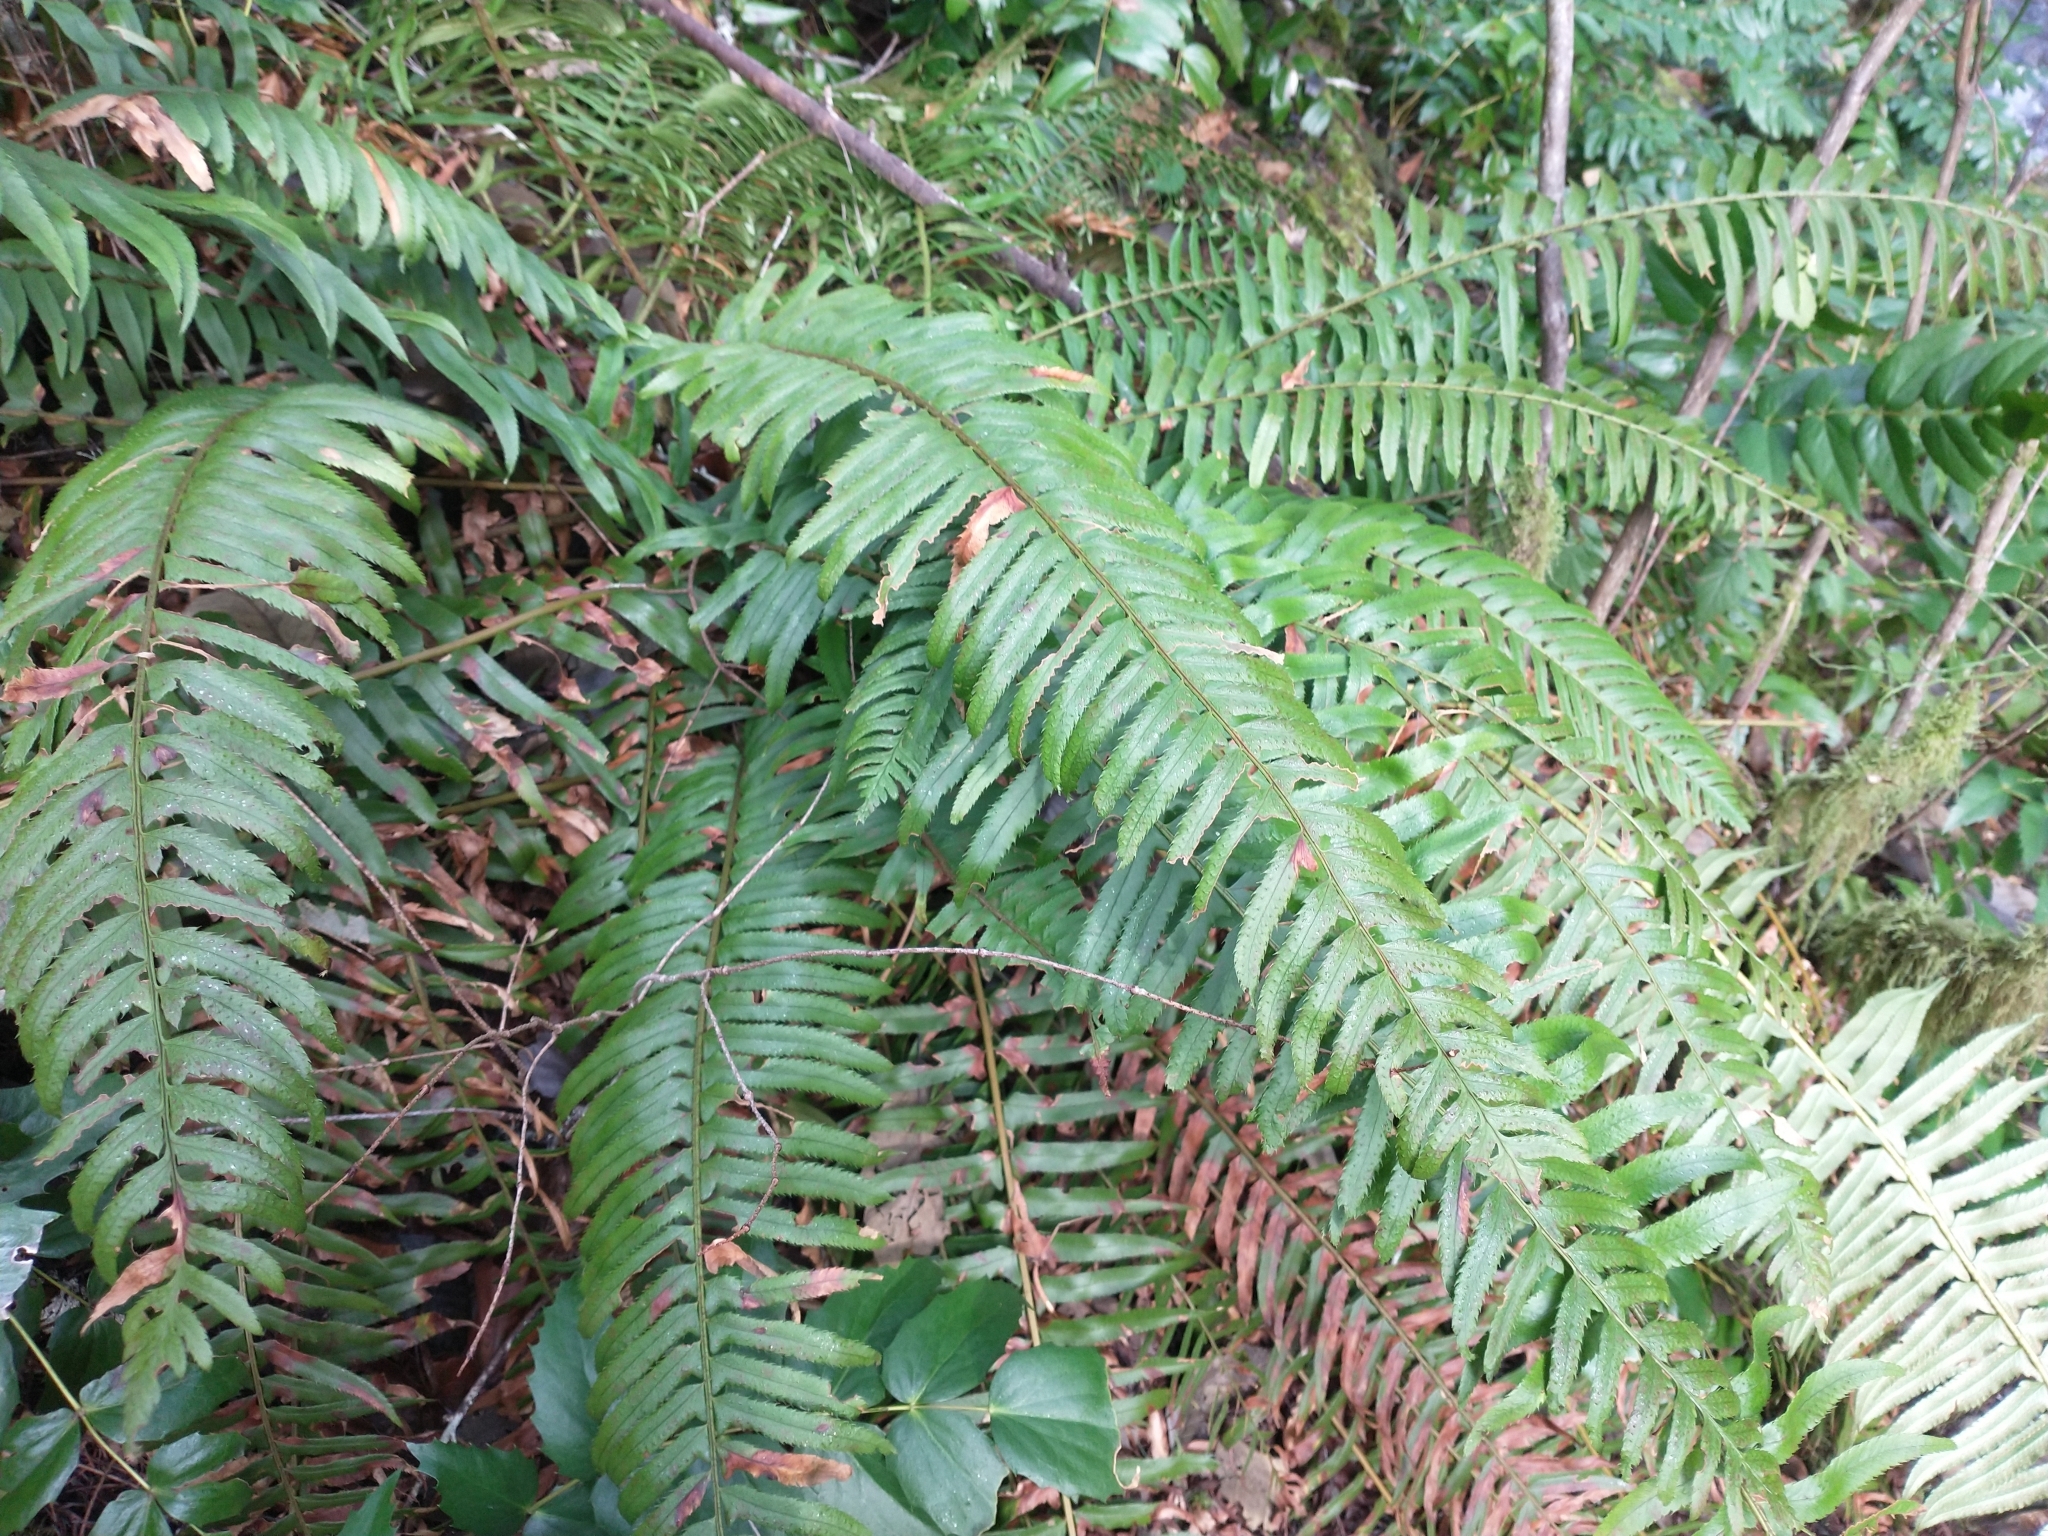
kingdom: Plantae
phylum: Tracheophyta
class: Polypodiopsida
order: Polypodiales
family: Dryopteridaceae
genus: Polystichum
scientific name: Polystichum munitum
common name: Western sword-fern
